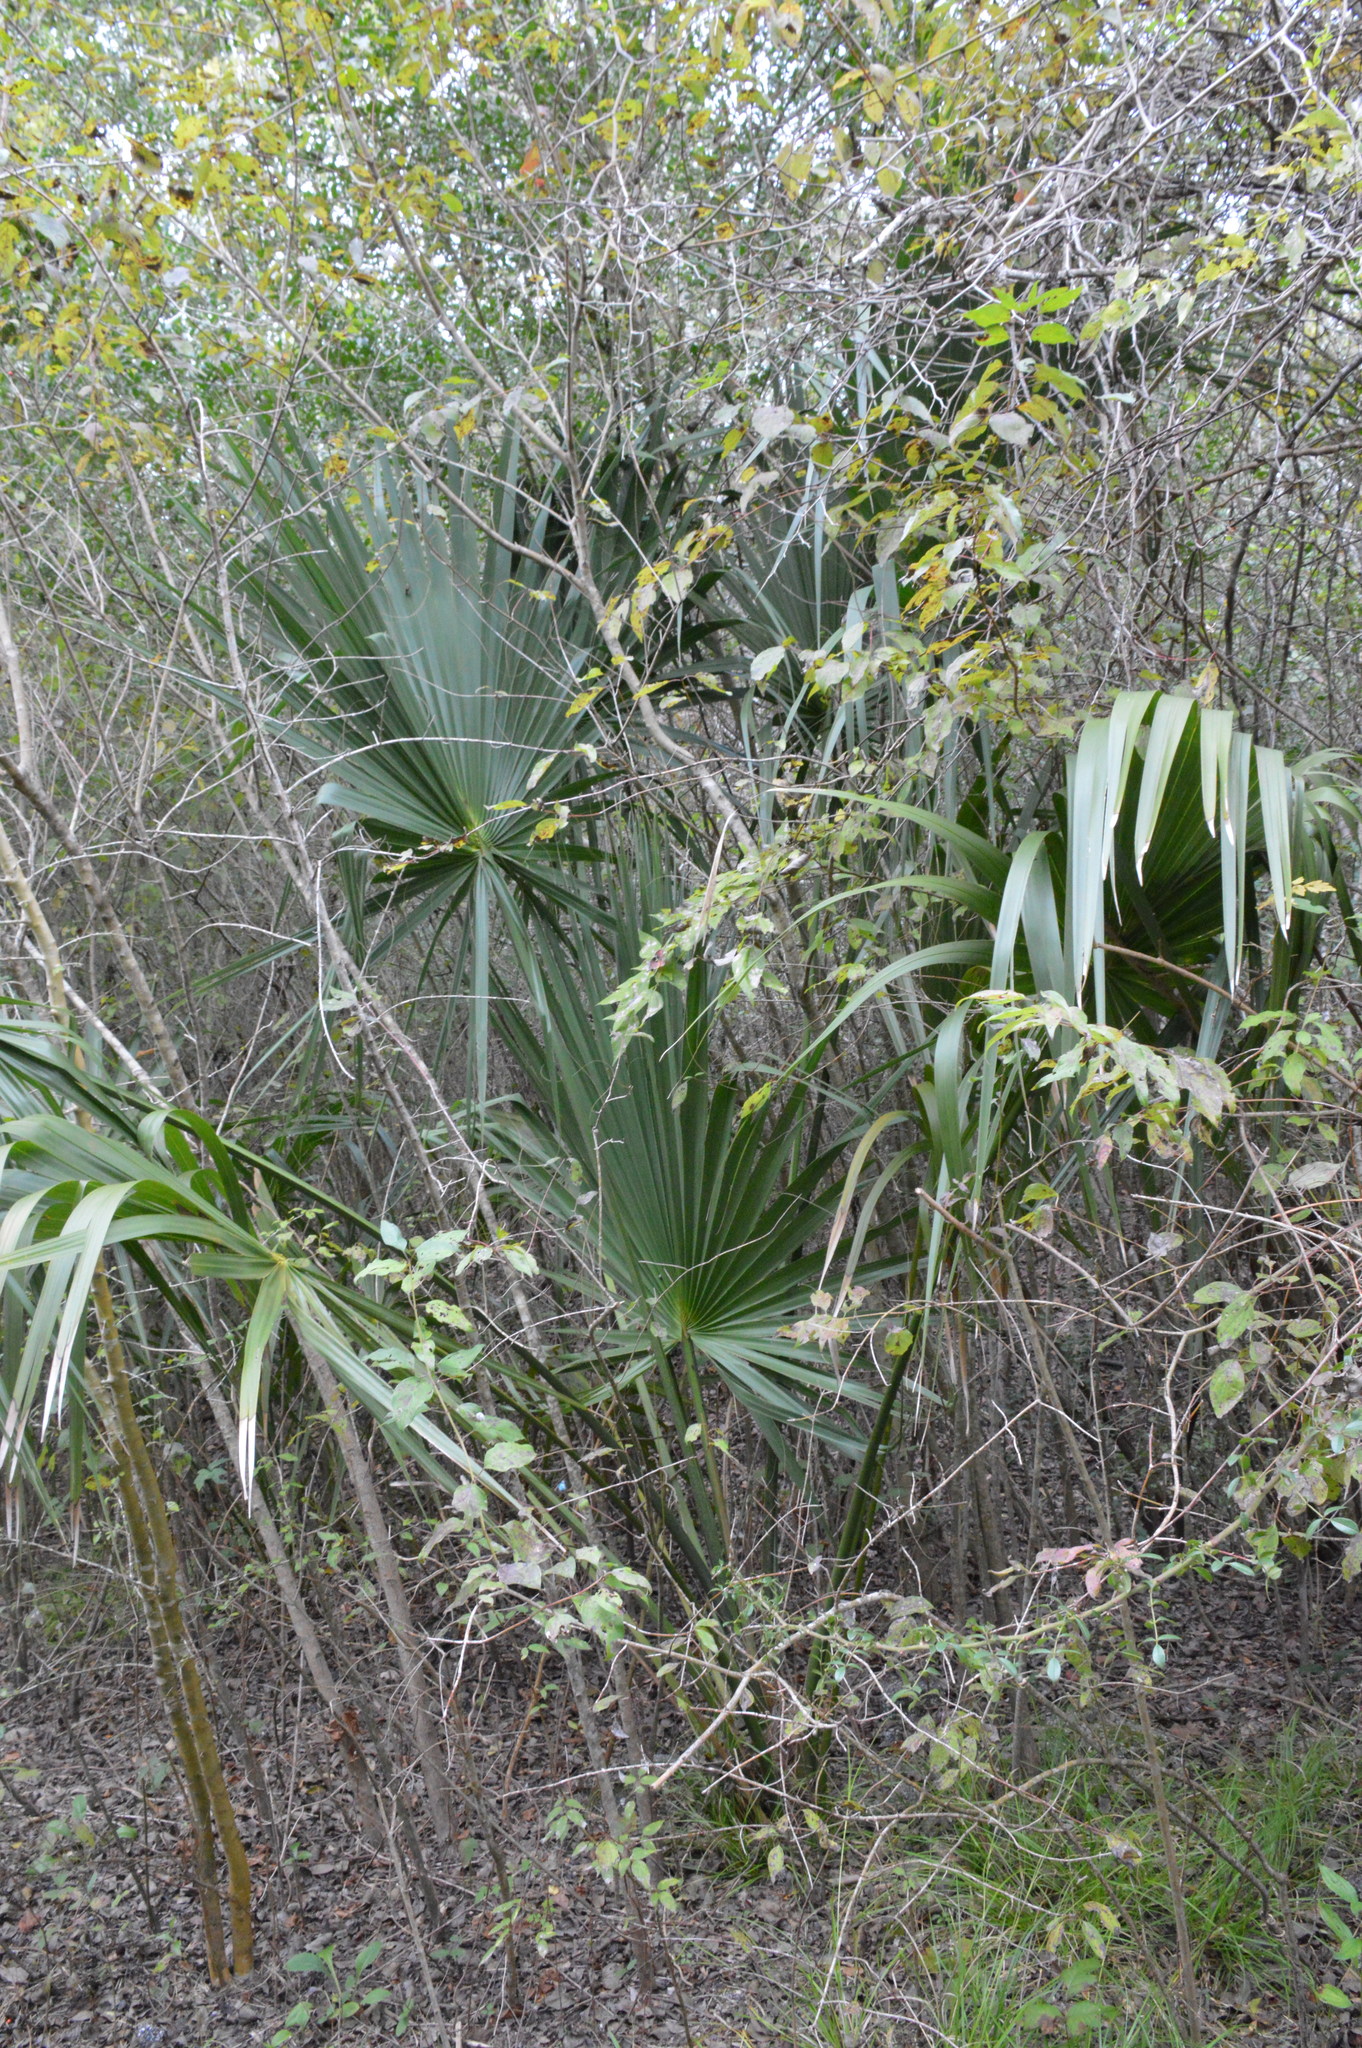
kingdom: Plantae
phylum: Tracheophyta
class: Liliopsida
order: Arecales
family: Arecaceae
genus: Sabal
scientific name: Sabal minor
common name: Dwarf palmetto
